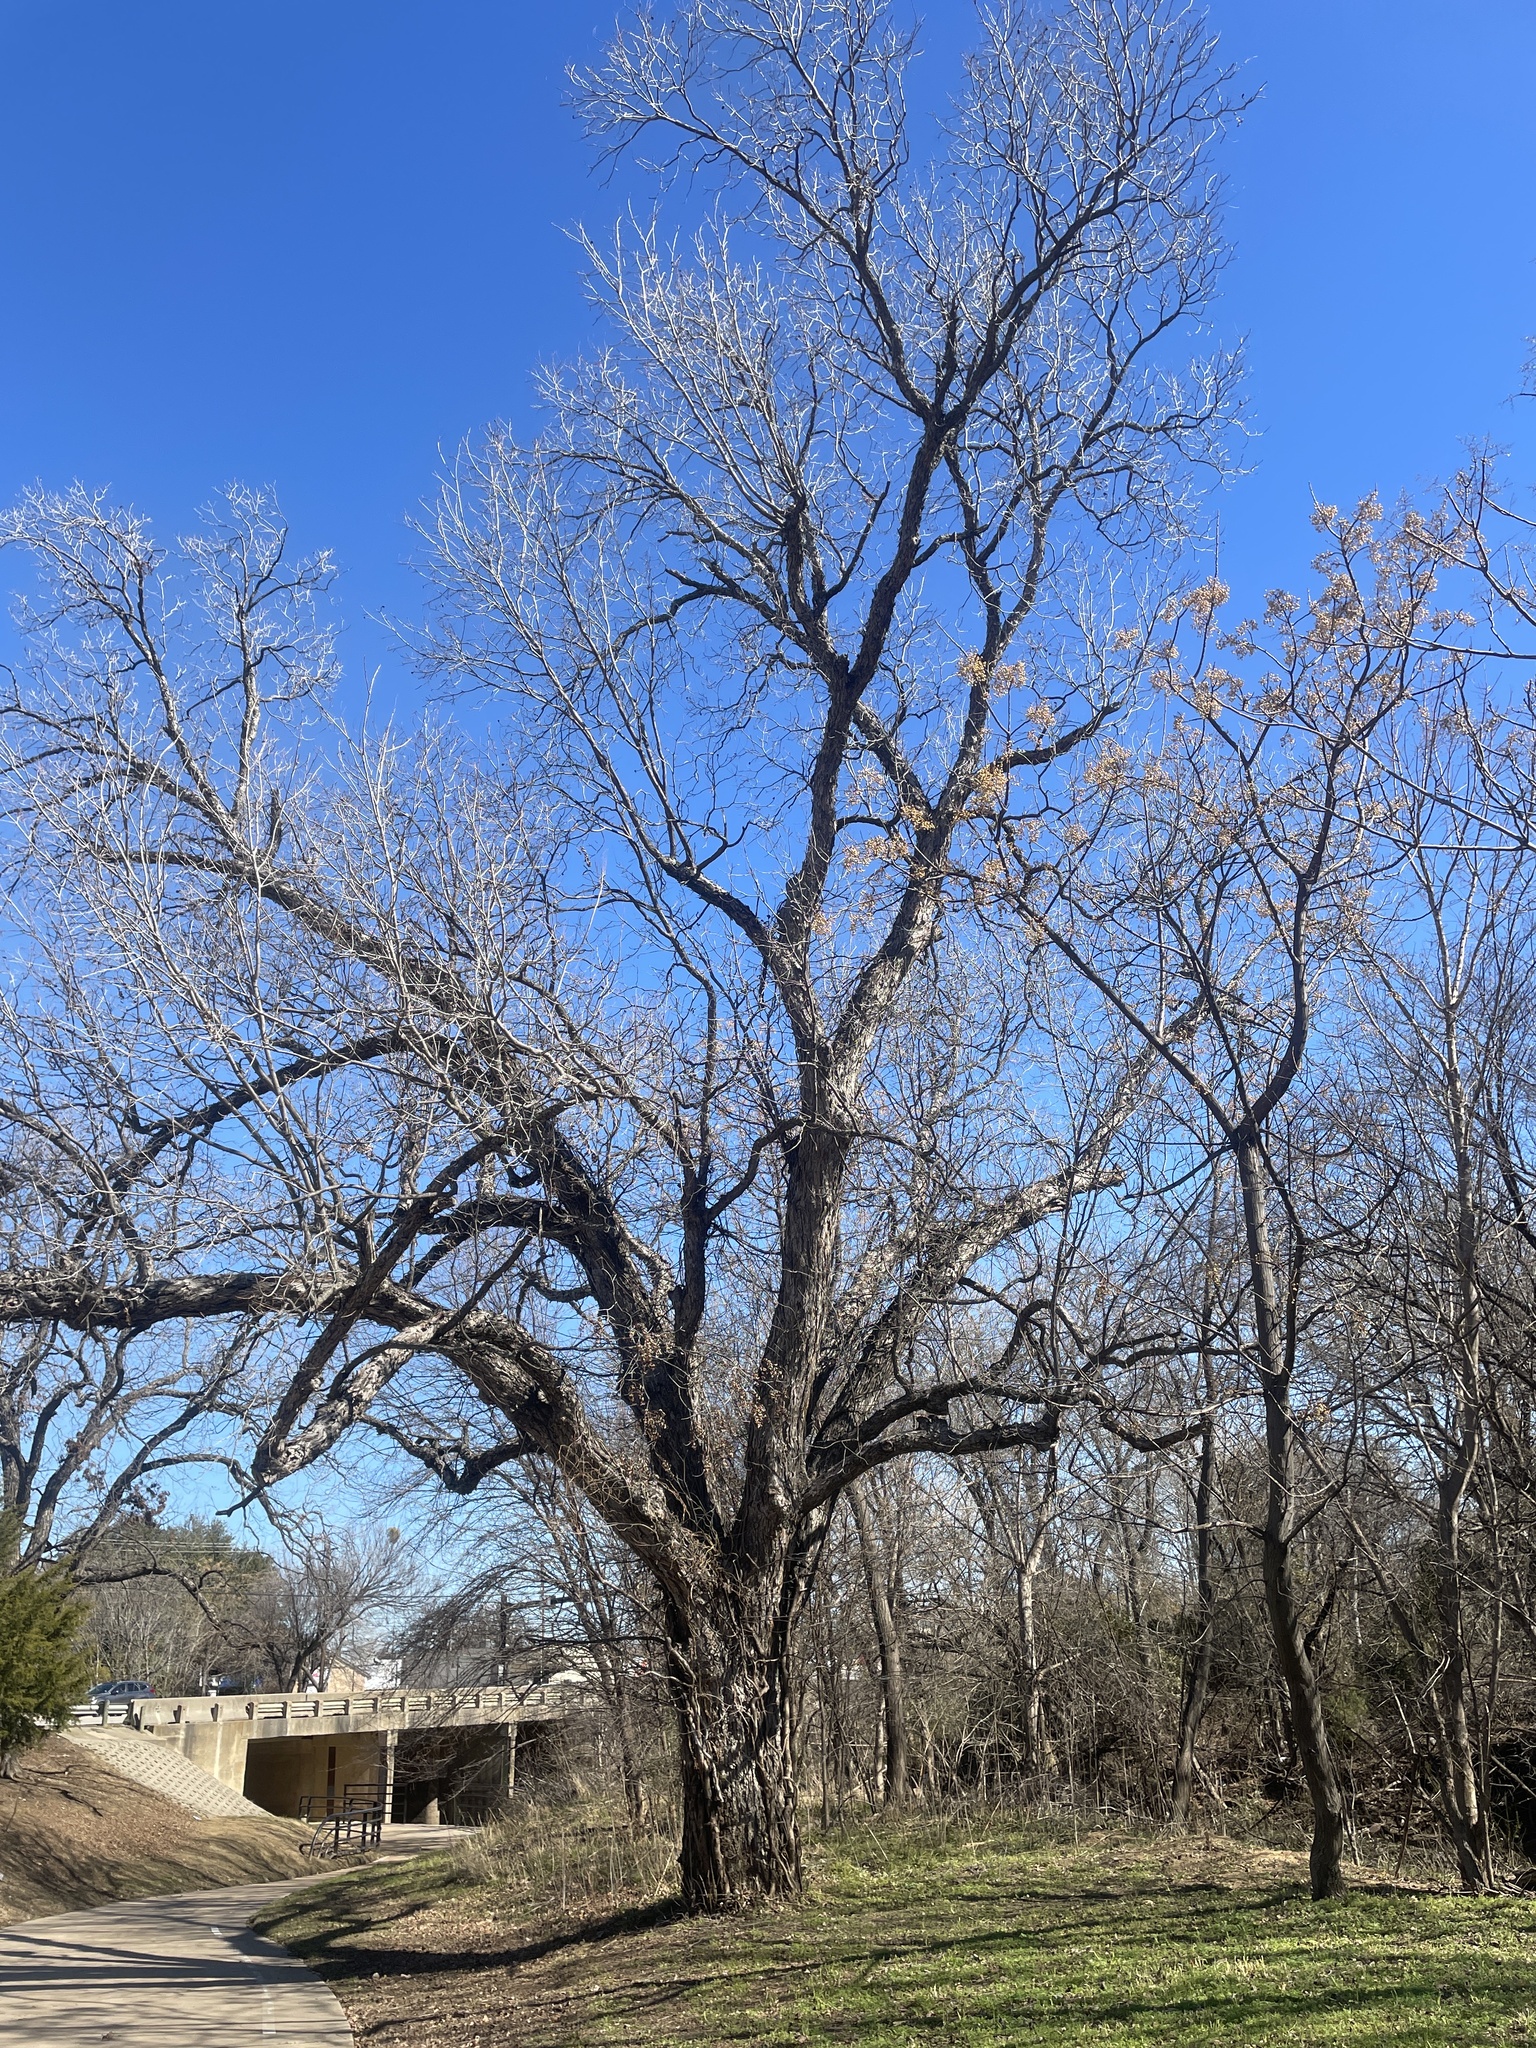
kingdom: Plantae
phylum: Tracheophyta
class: Magnoliopsida
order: Fagales
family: Juglandaceae
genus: Carya
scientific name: Carya illinoinensis
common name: Pecan
